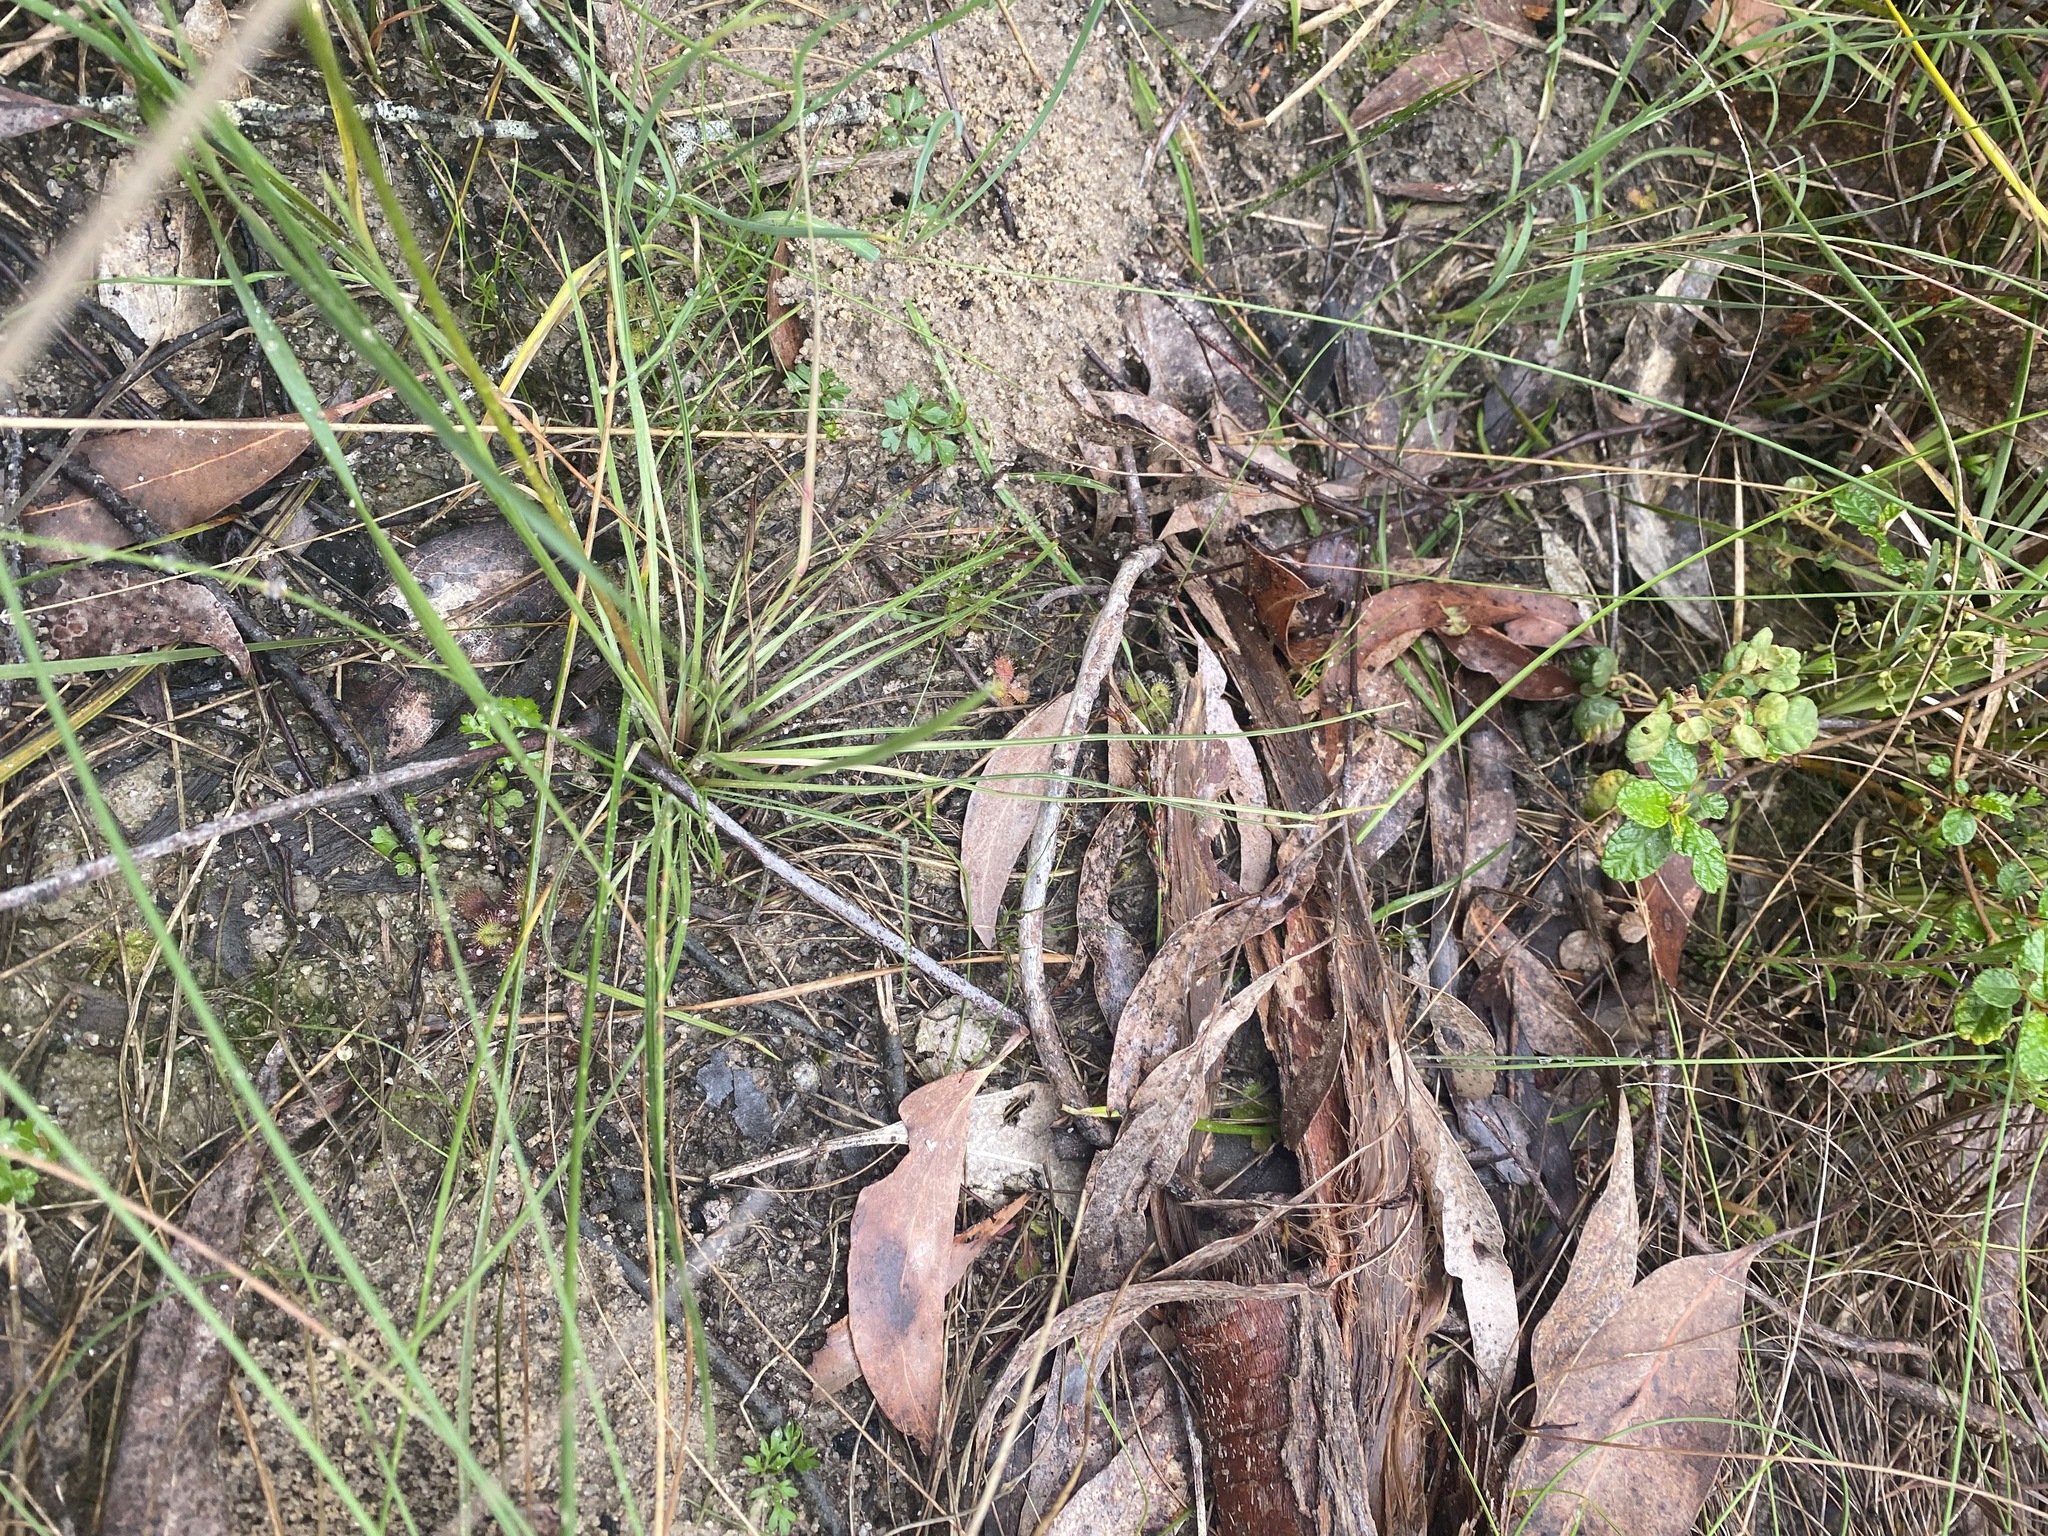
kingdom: Plantae
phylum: Tracheophyta
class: Magnoliopsida
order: Asterales
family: Stylidiaceae
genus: Stylidium
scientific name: Stylidium graminifolium
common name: Grass triggerplant
